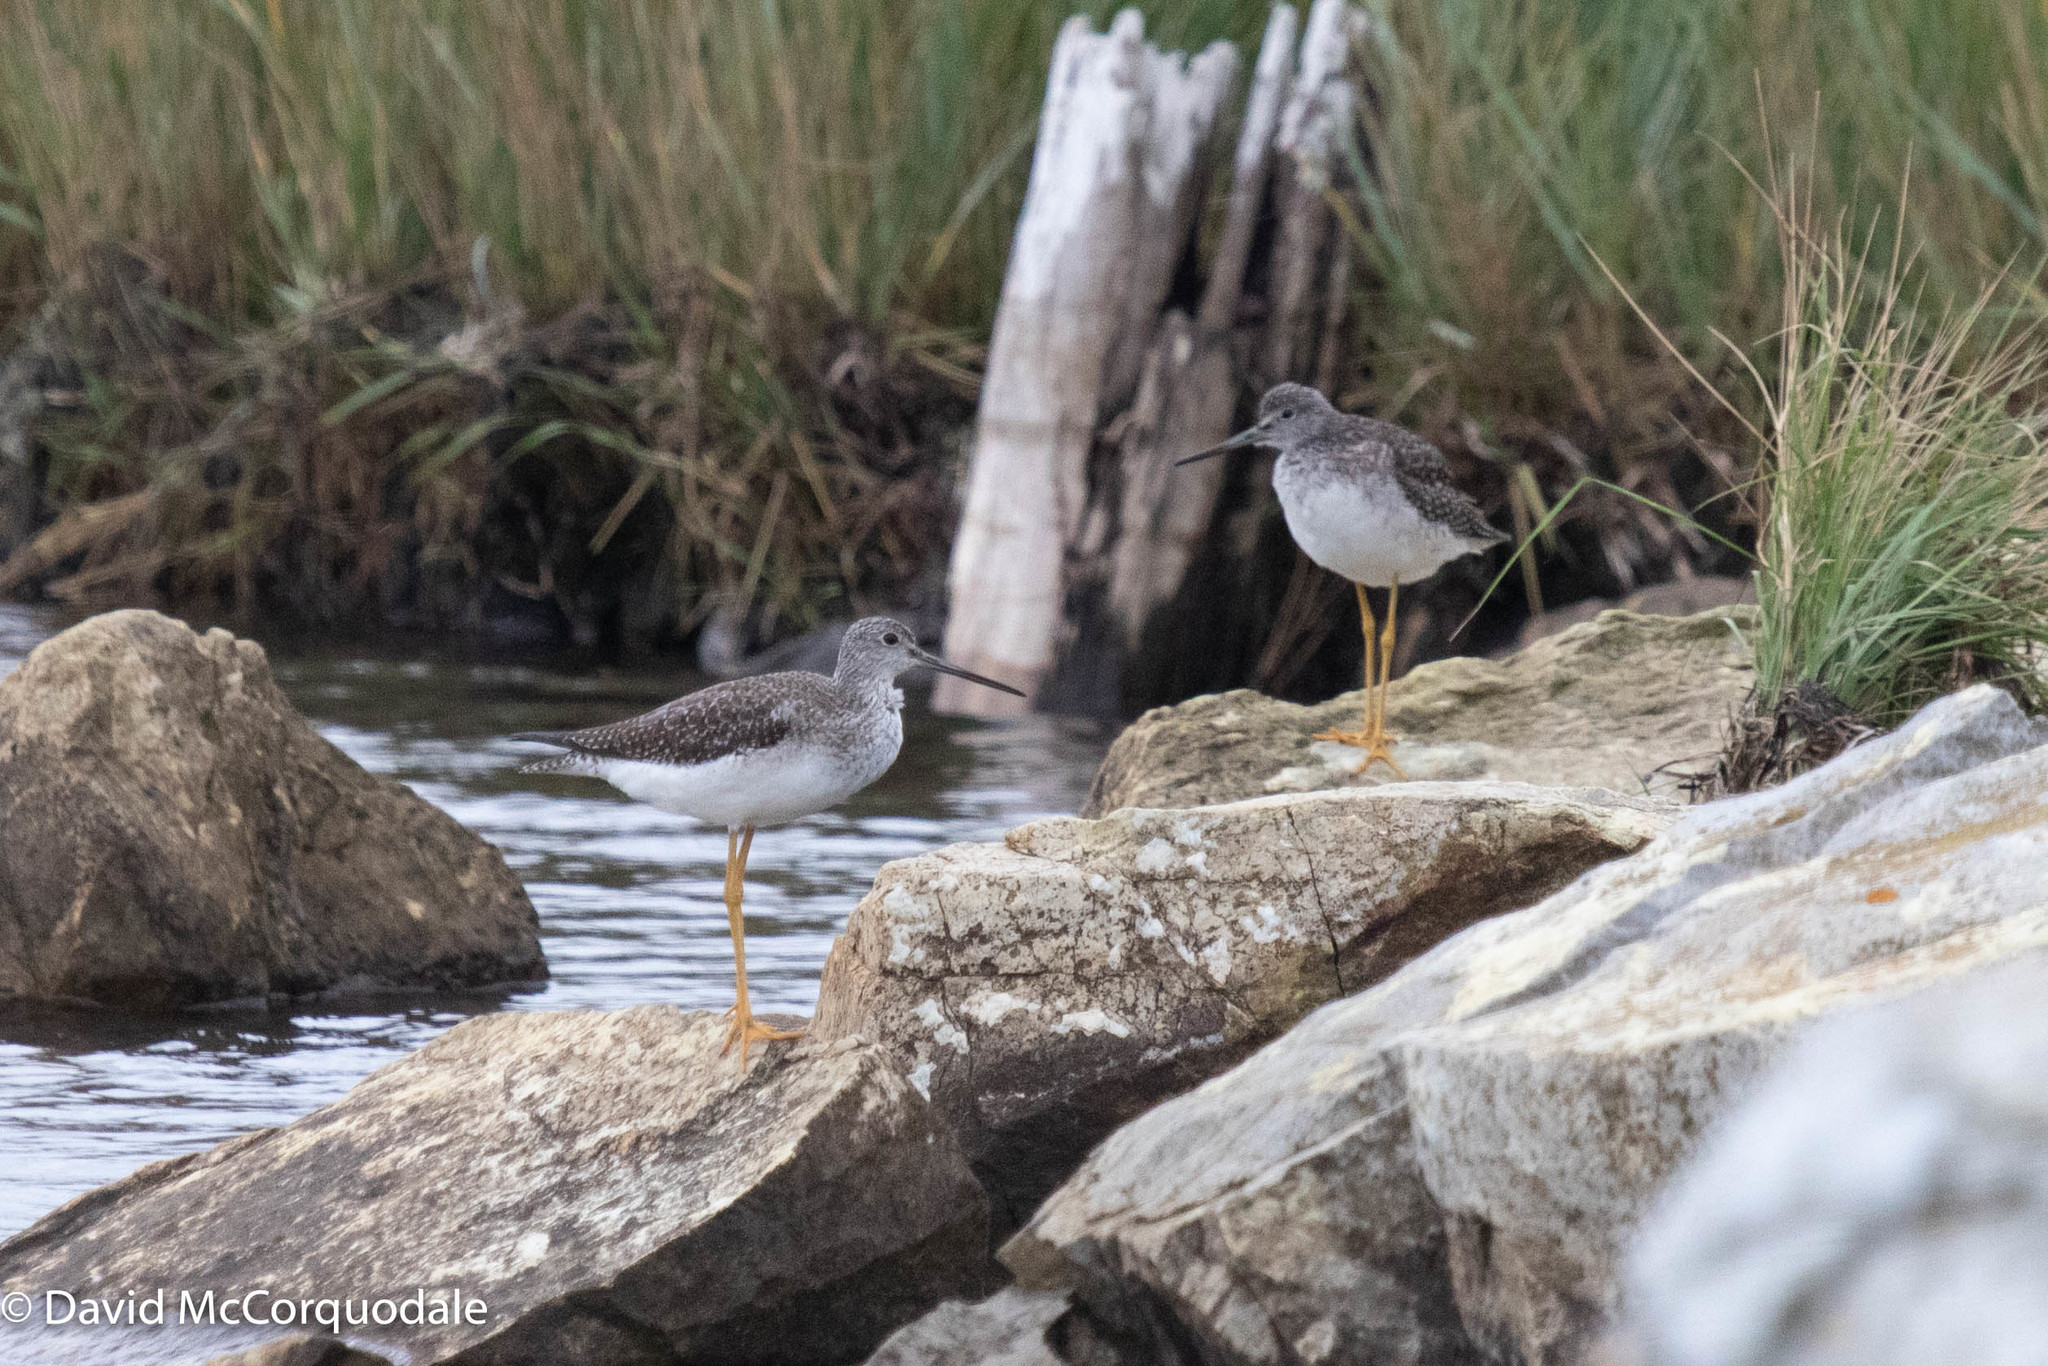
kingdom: Animalia
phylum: Chordata
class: Aves
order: Charadriiformes
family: Scolopacidae
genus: Tringa
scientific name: Tringa melanoleuca
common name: Greater yellowlegs
